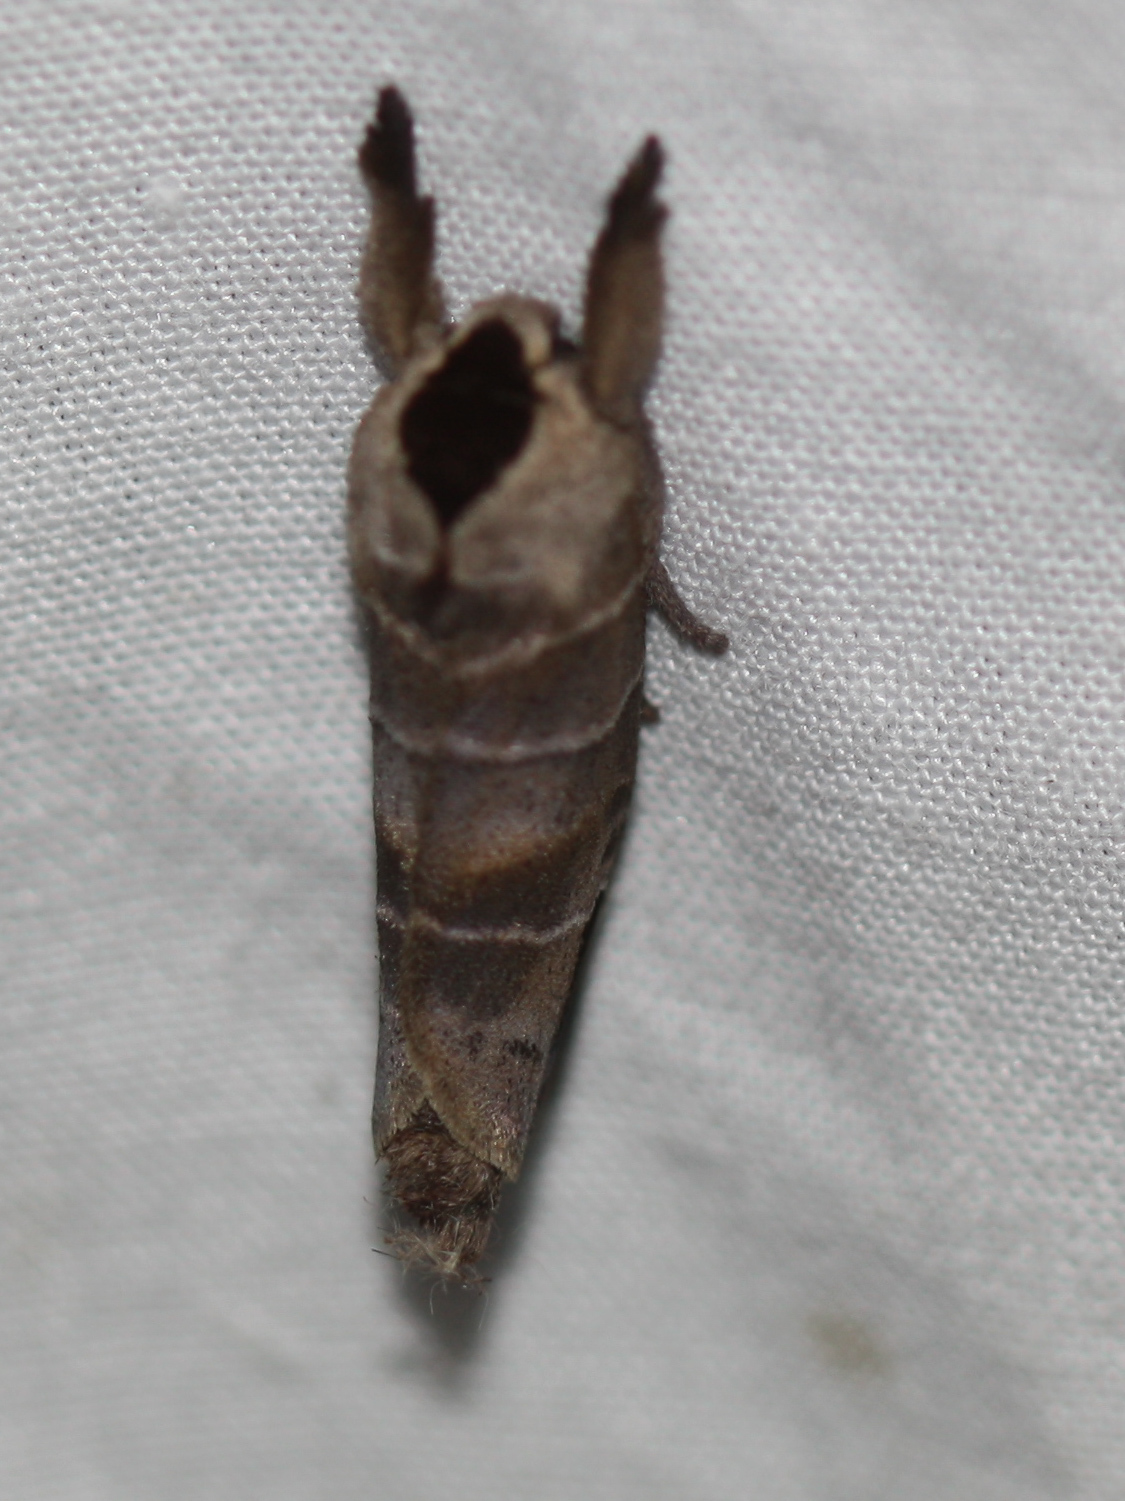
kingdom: Animalia
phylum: Arthropoda
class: Insecta
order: Lepidoptera
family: Notodontidae
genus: Clostera
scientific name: Clostera albosigma
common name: Sigmoid prominent
